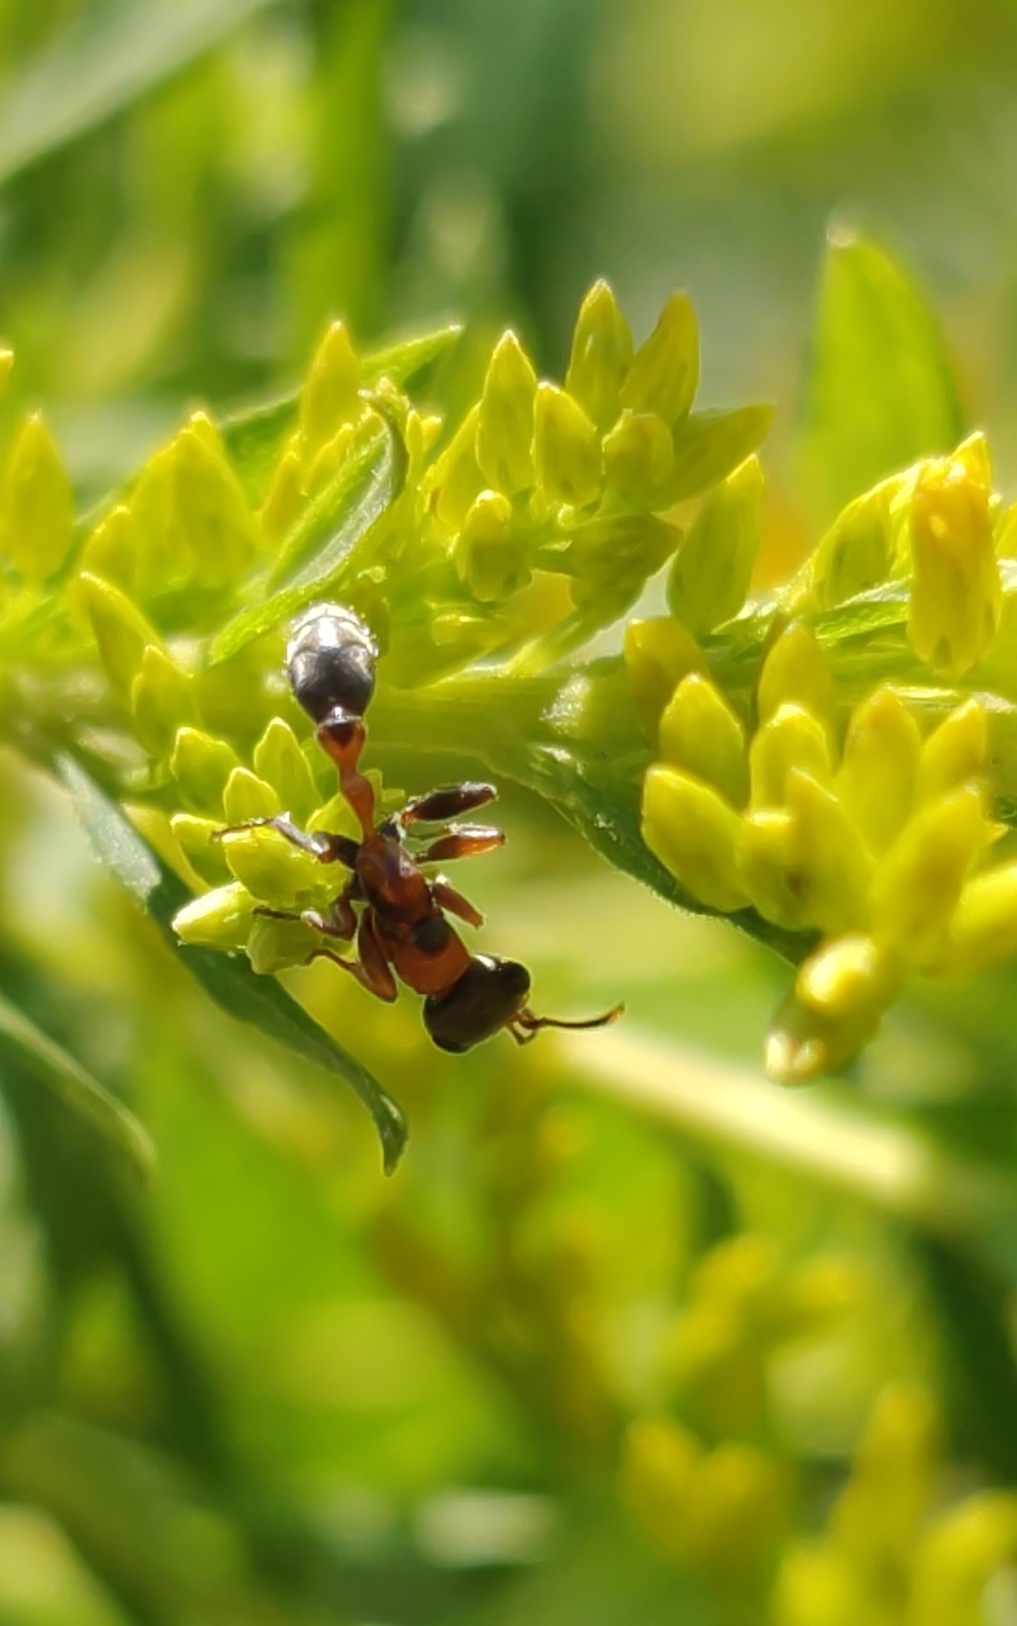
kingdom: Animalia
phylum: Arthropoda
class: Insecta
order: Hymenoptera
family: Formicidae
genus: Pseudomyrmex
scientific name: Pseudomyrmex gracilis
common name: Graceful twig ant
